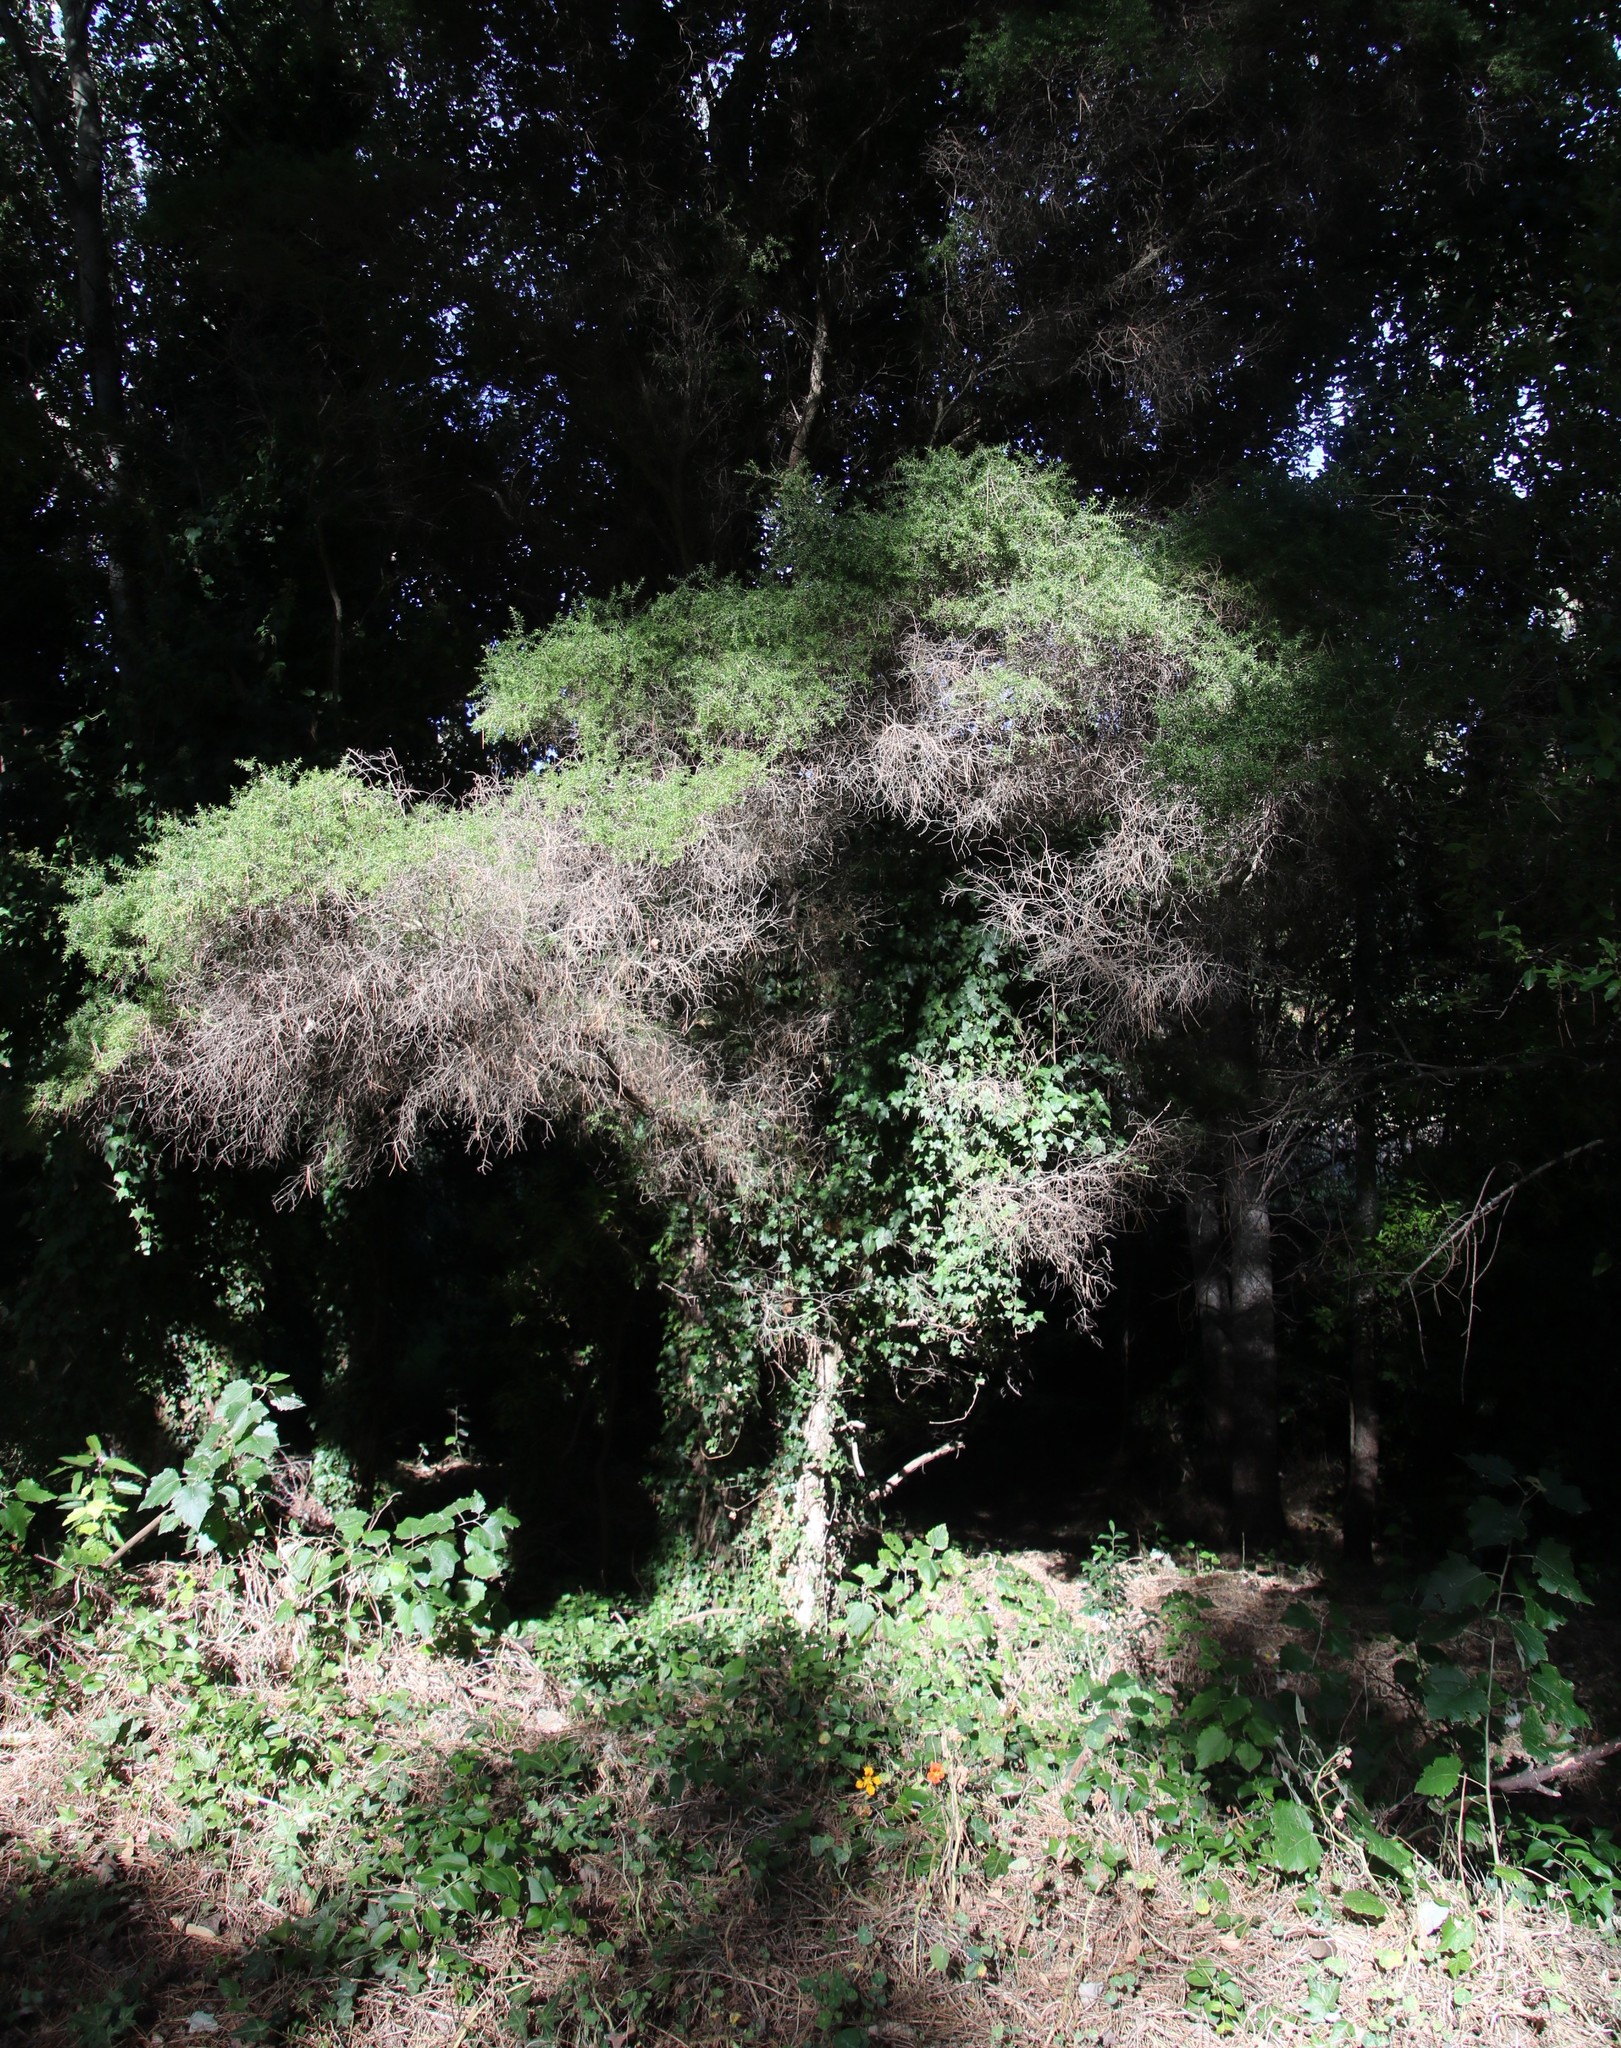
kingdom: Plantae
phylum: Tracheophyta
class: Magnoliopsida
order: Myrtales
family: Myrtaceae
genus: Melaleuca
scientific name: Melaleuca styphelioides
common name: Prickly paperbark
